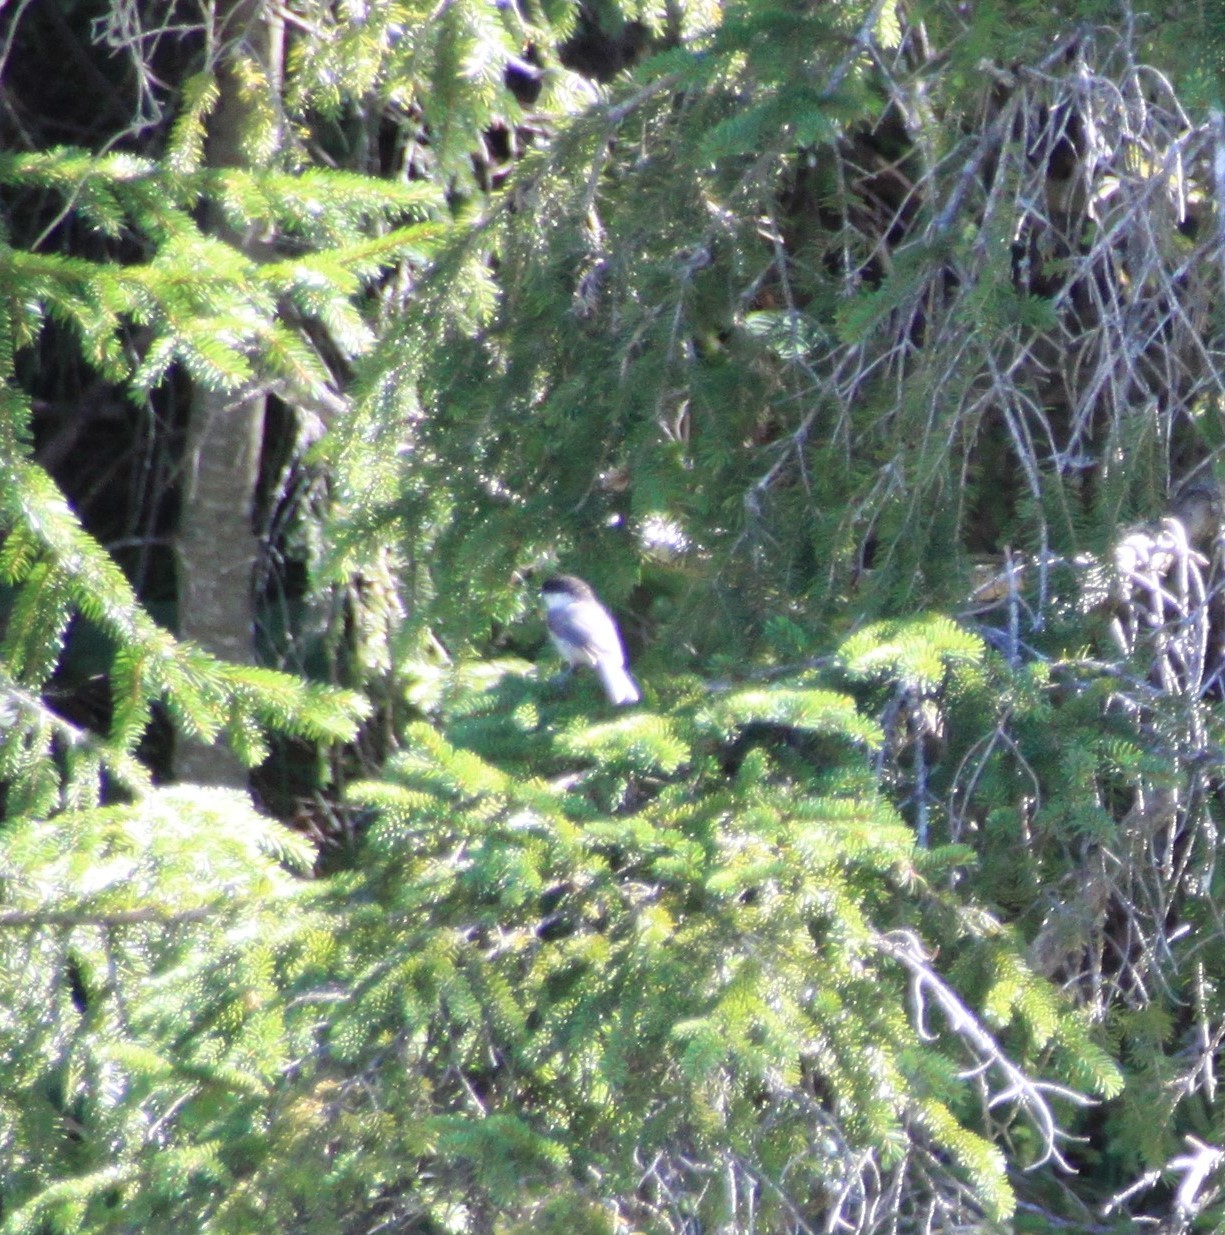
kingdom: Animalia
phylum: Chordata
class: Aves
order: Passeriformes
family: Paridae
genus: Poecile
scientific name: Poecile montanus
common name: Willow tit
